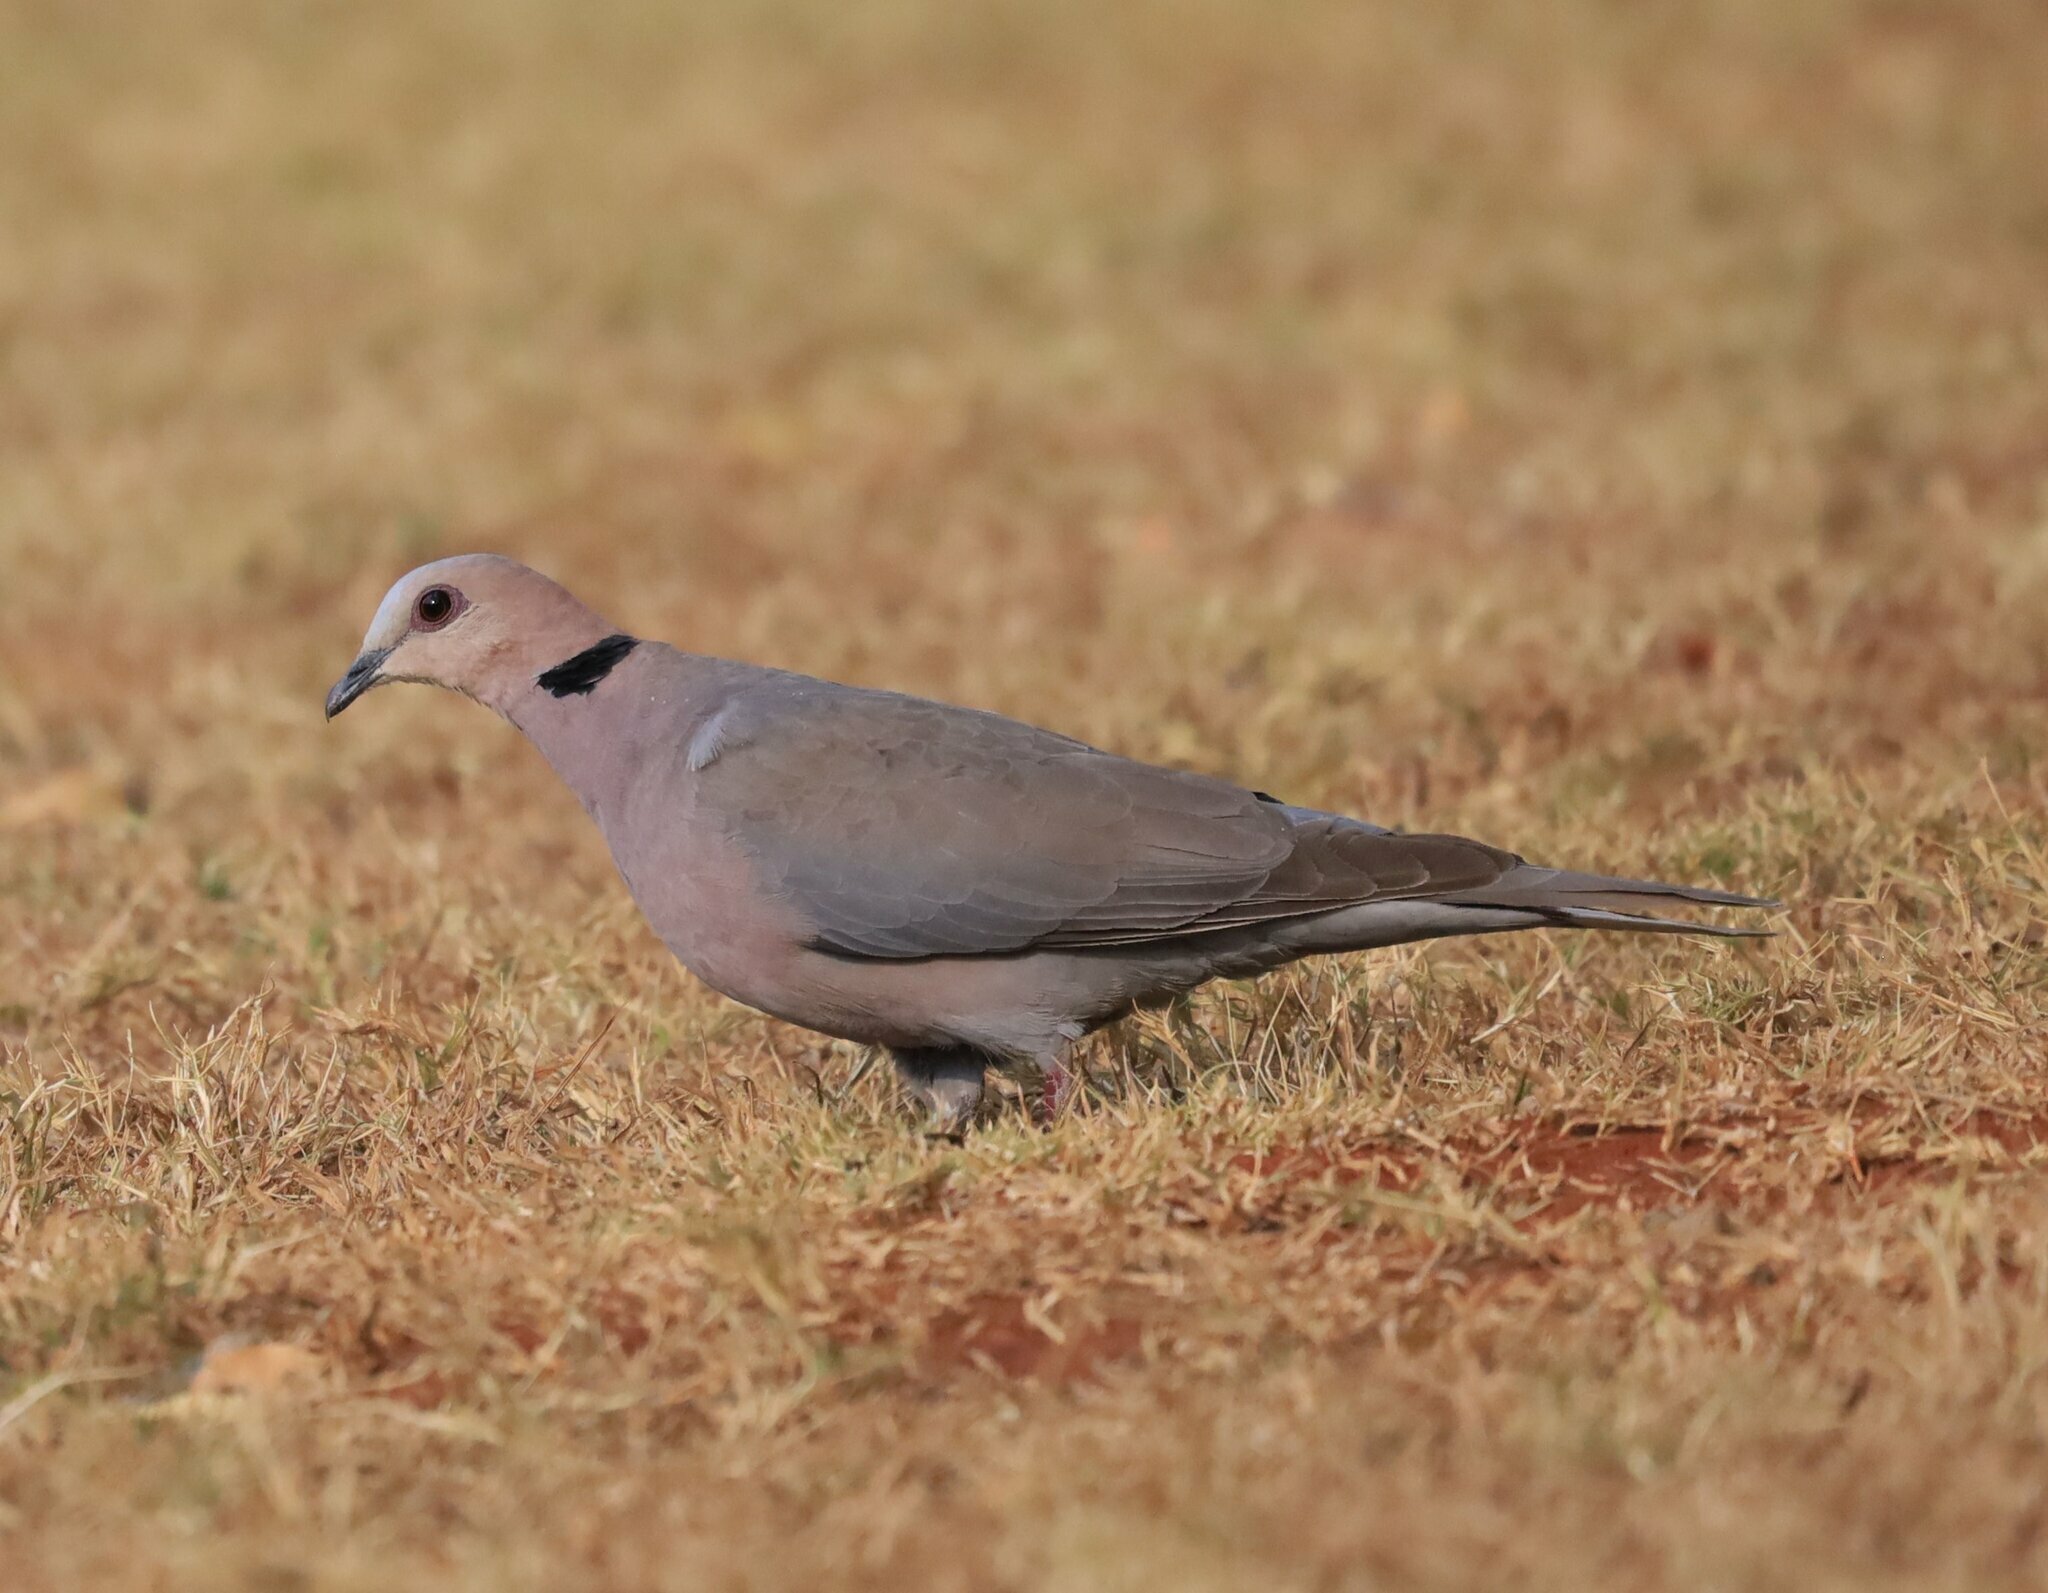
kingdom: Animalia
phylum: Chordata
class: Aves
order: Columbiformes
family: Columbidae
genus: Streptopelia
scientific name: Streptopelia semitorquata
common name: Red-eyed dove
